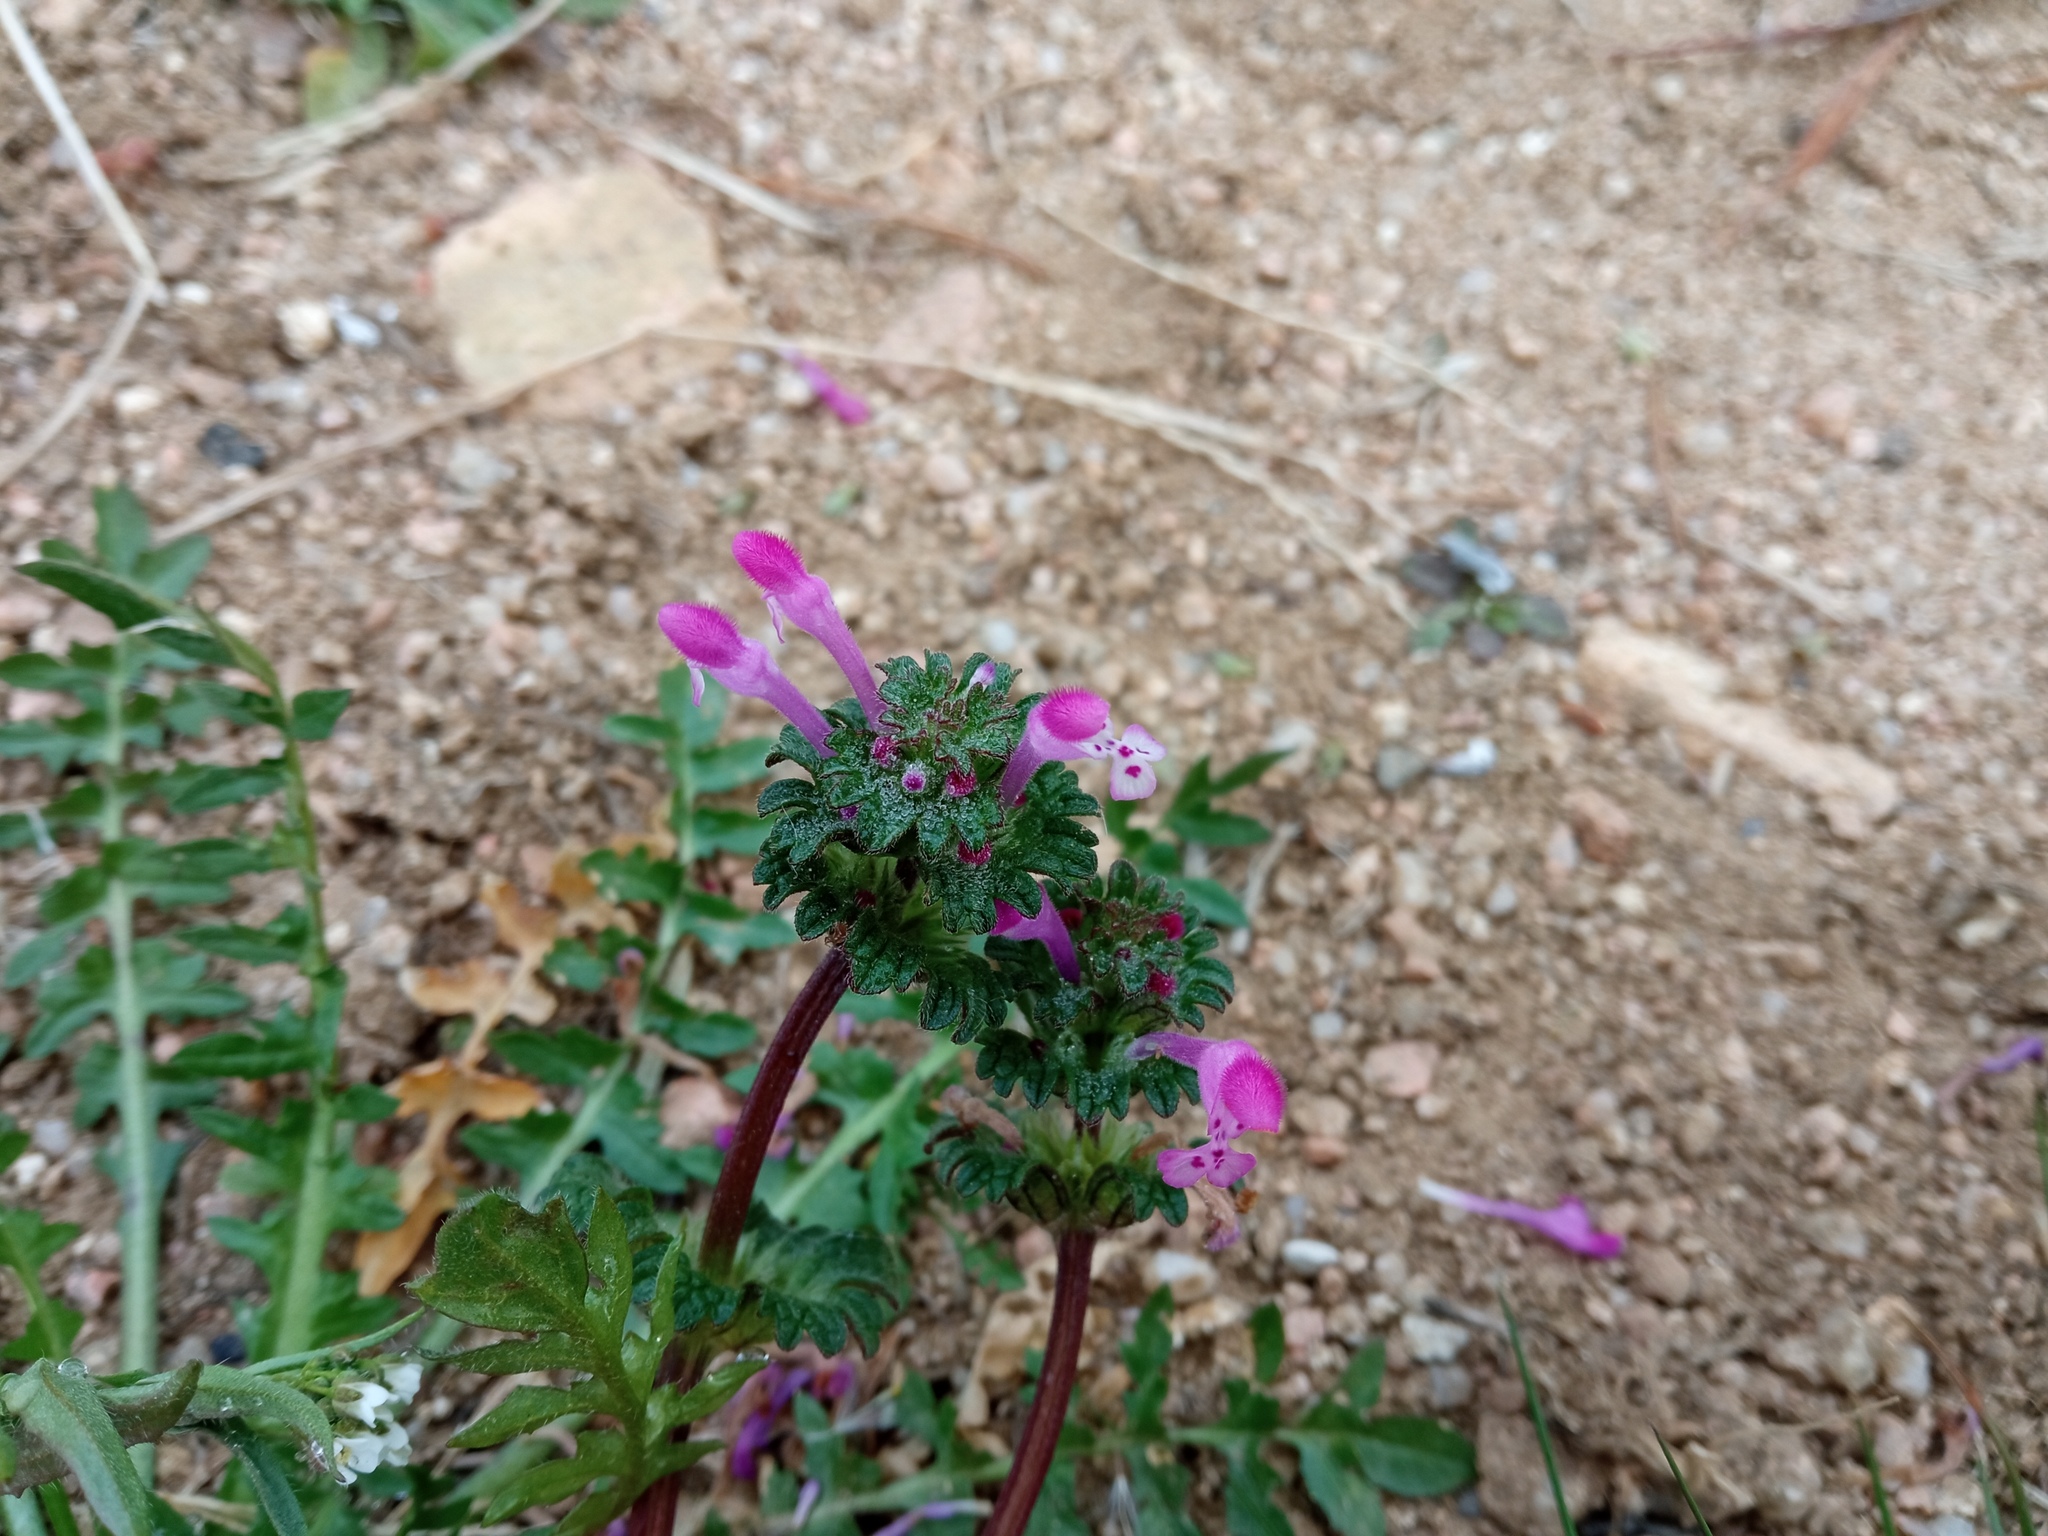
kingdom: Plantae
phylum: Tracheophyta
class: Magnoliopsida
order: Lamiales
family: Lamiaceae
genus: Lamium
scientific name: Lamium amplexicaule
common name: Henbit dead-nettle
